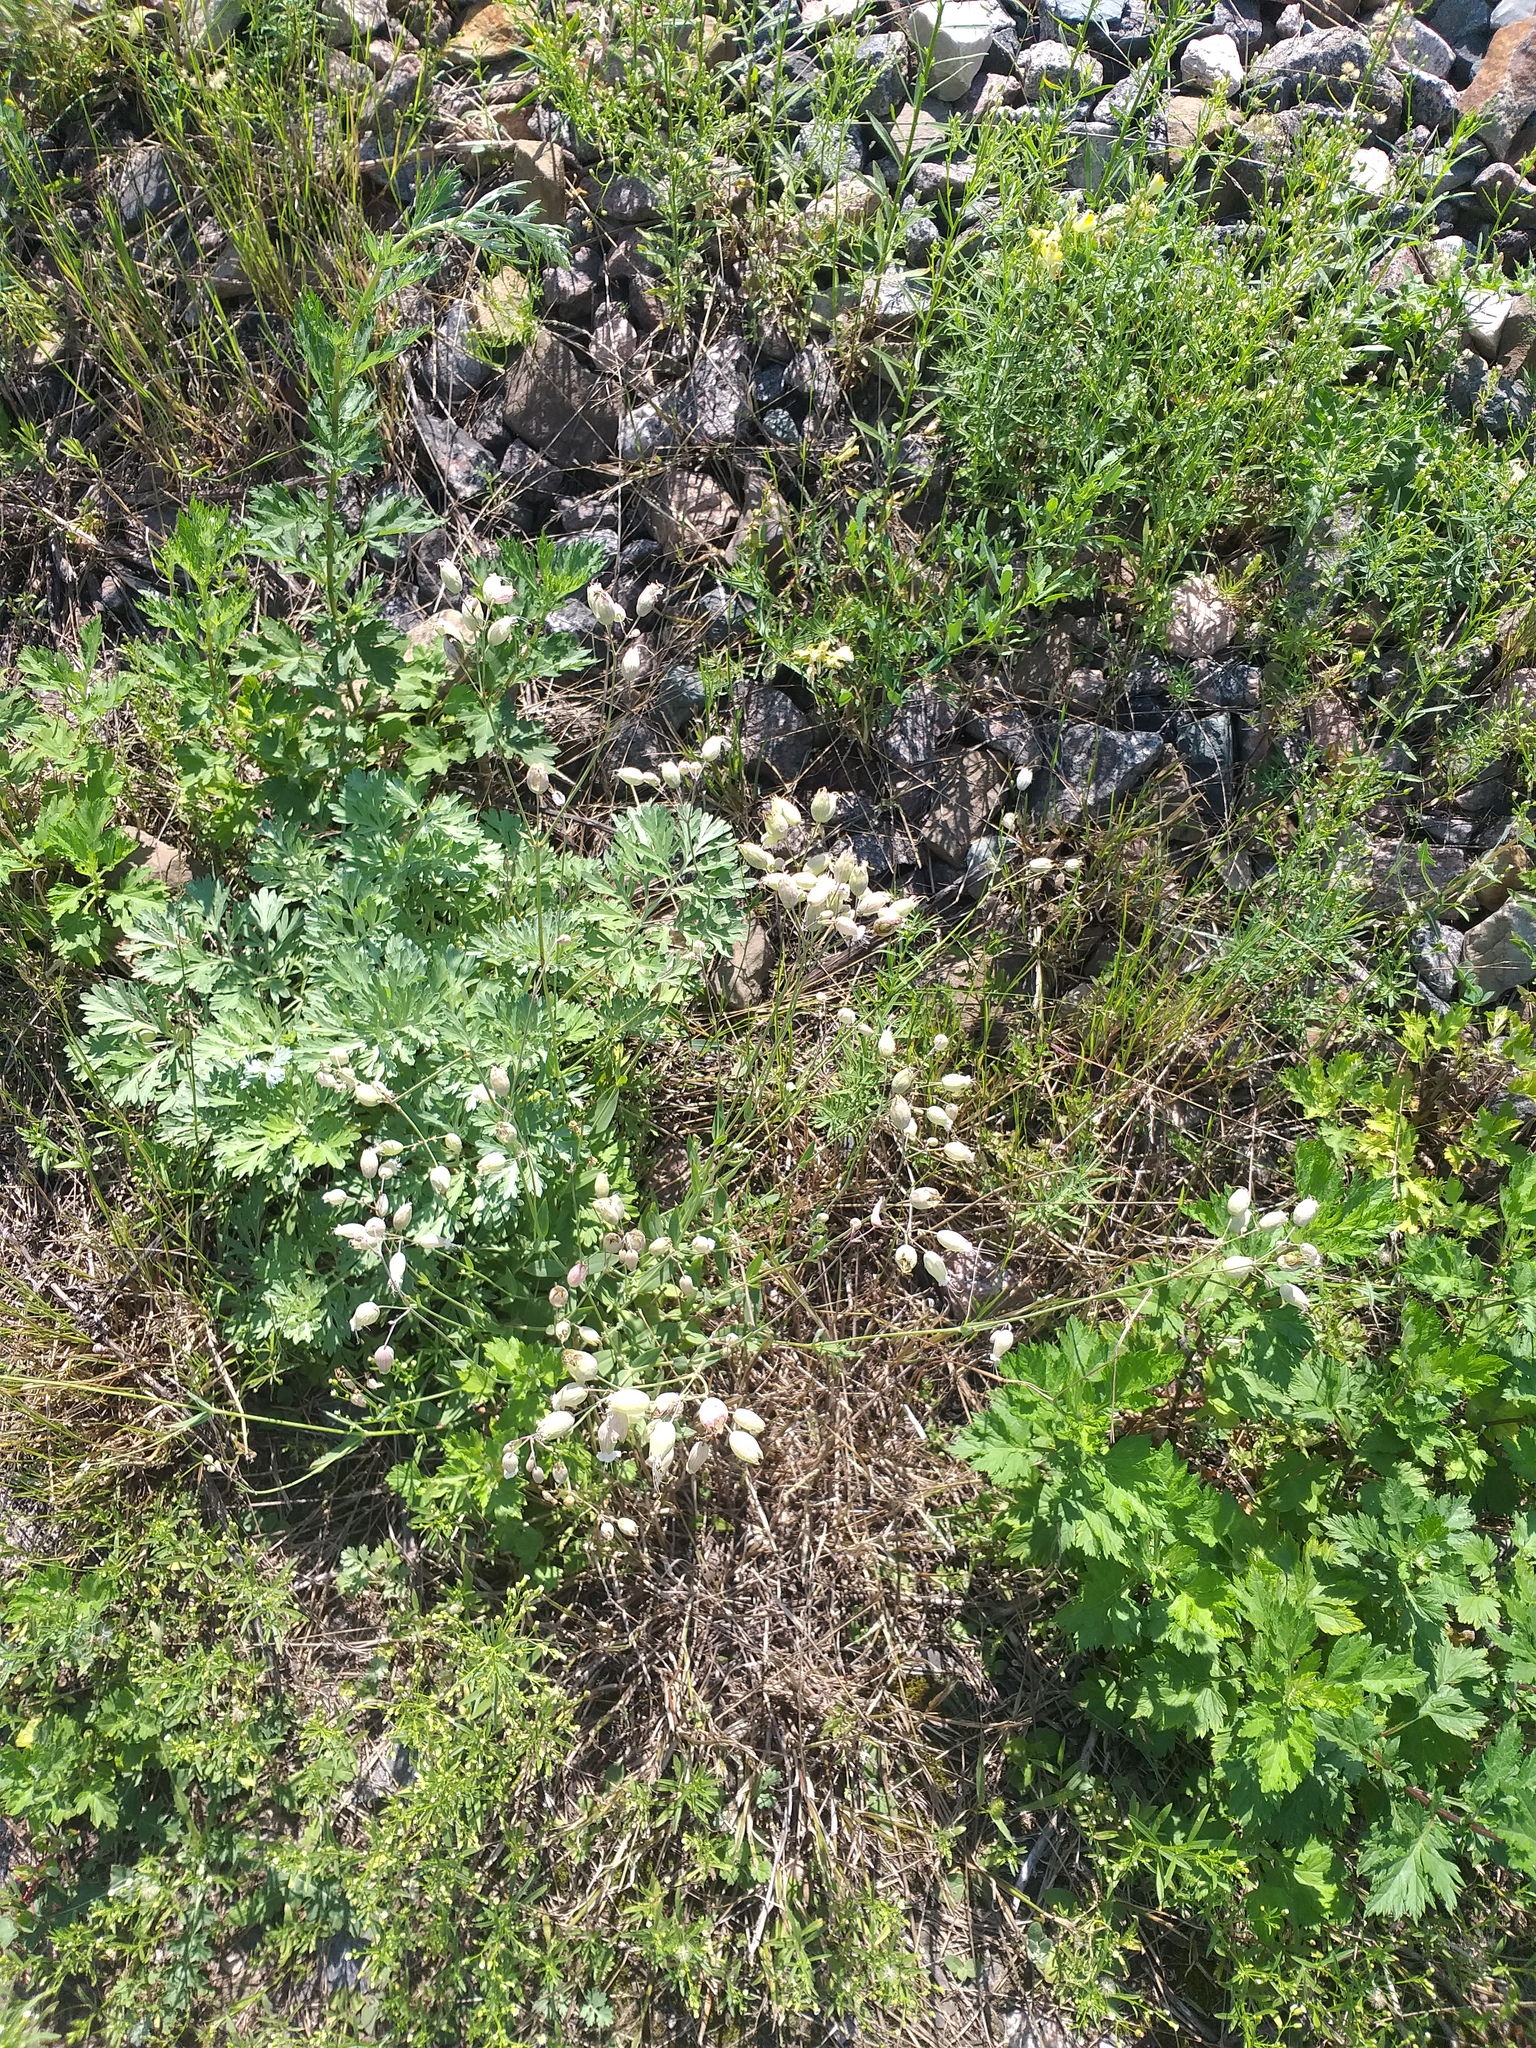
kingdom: Plantae
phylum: Tracheophyta
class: Magnoliopsida
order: Caryophyllales
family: Caryophyllaceae
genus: Silene
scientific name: Silene vulgaris
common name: Bladder campion
